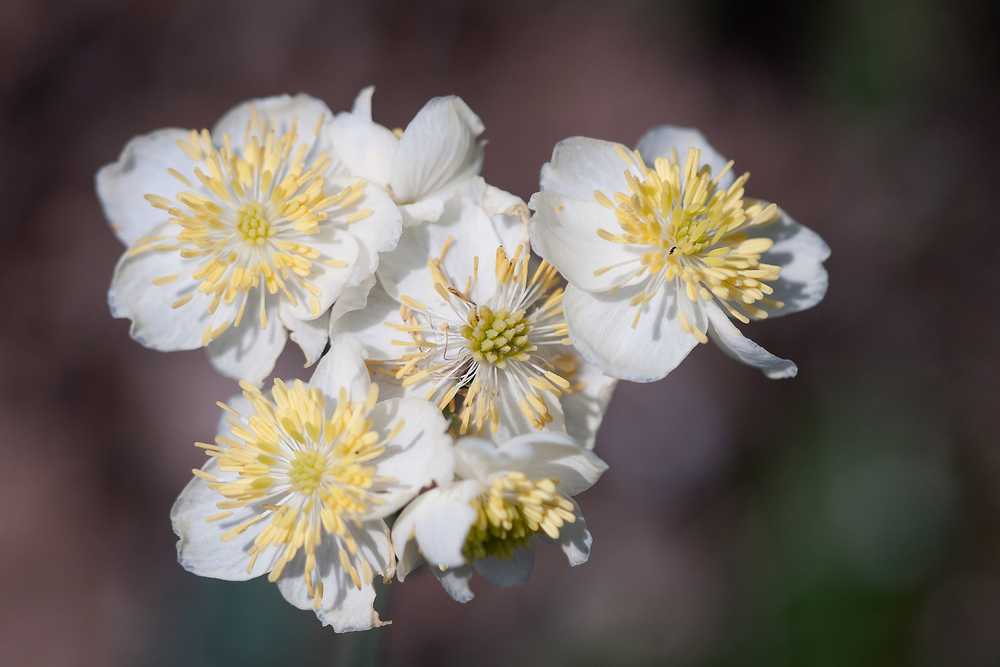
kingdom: Plantae
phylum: Tracheophyta
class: Magnoliopsida
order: Ranunculales
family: Ranunculaceae
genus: Thalictrum
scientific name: Thalictrum tuberosum
